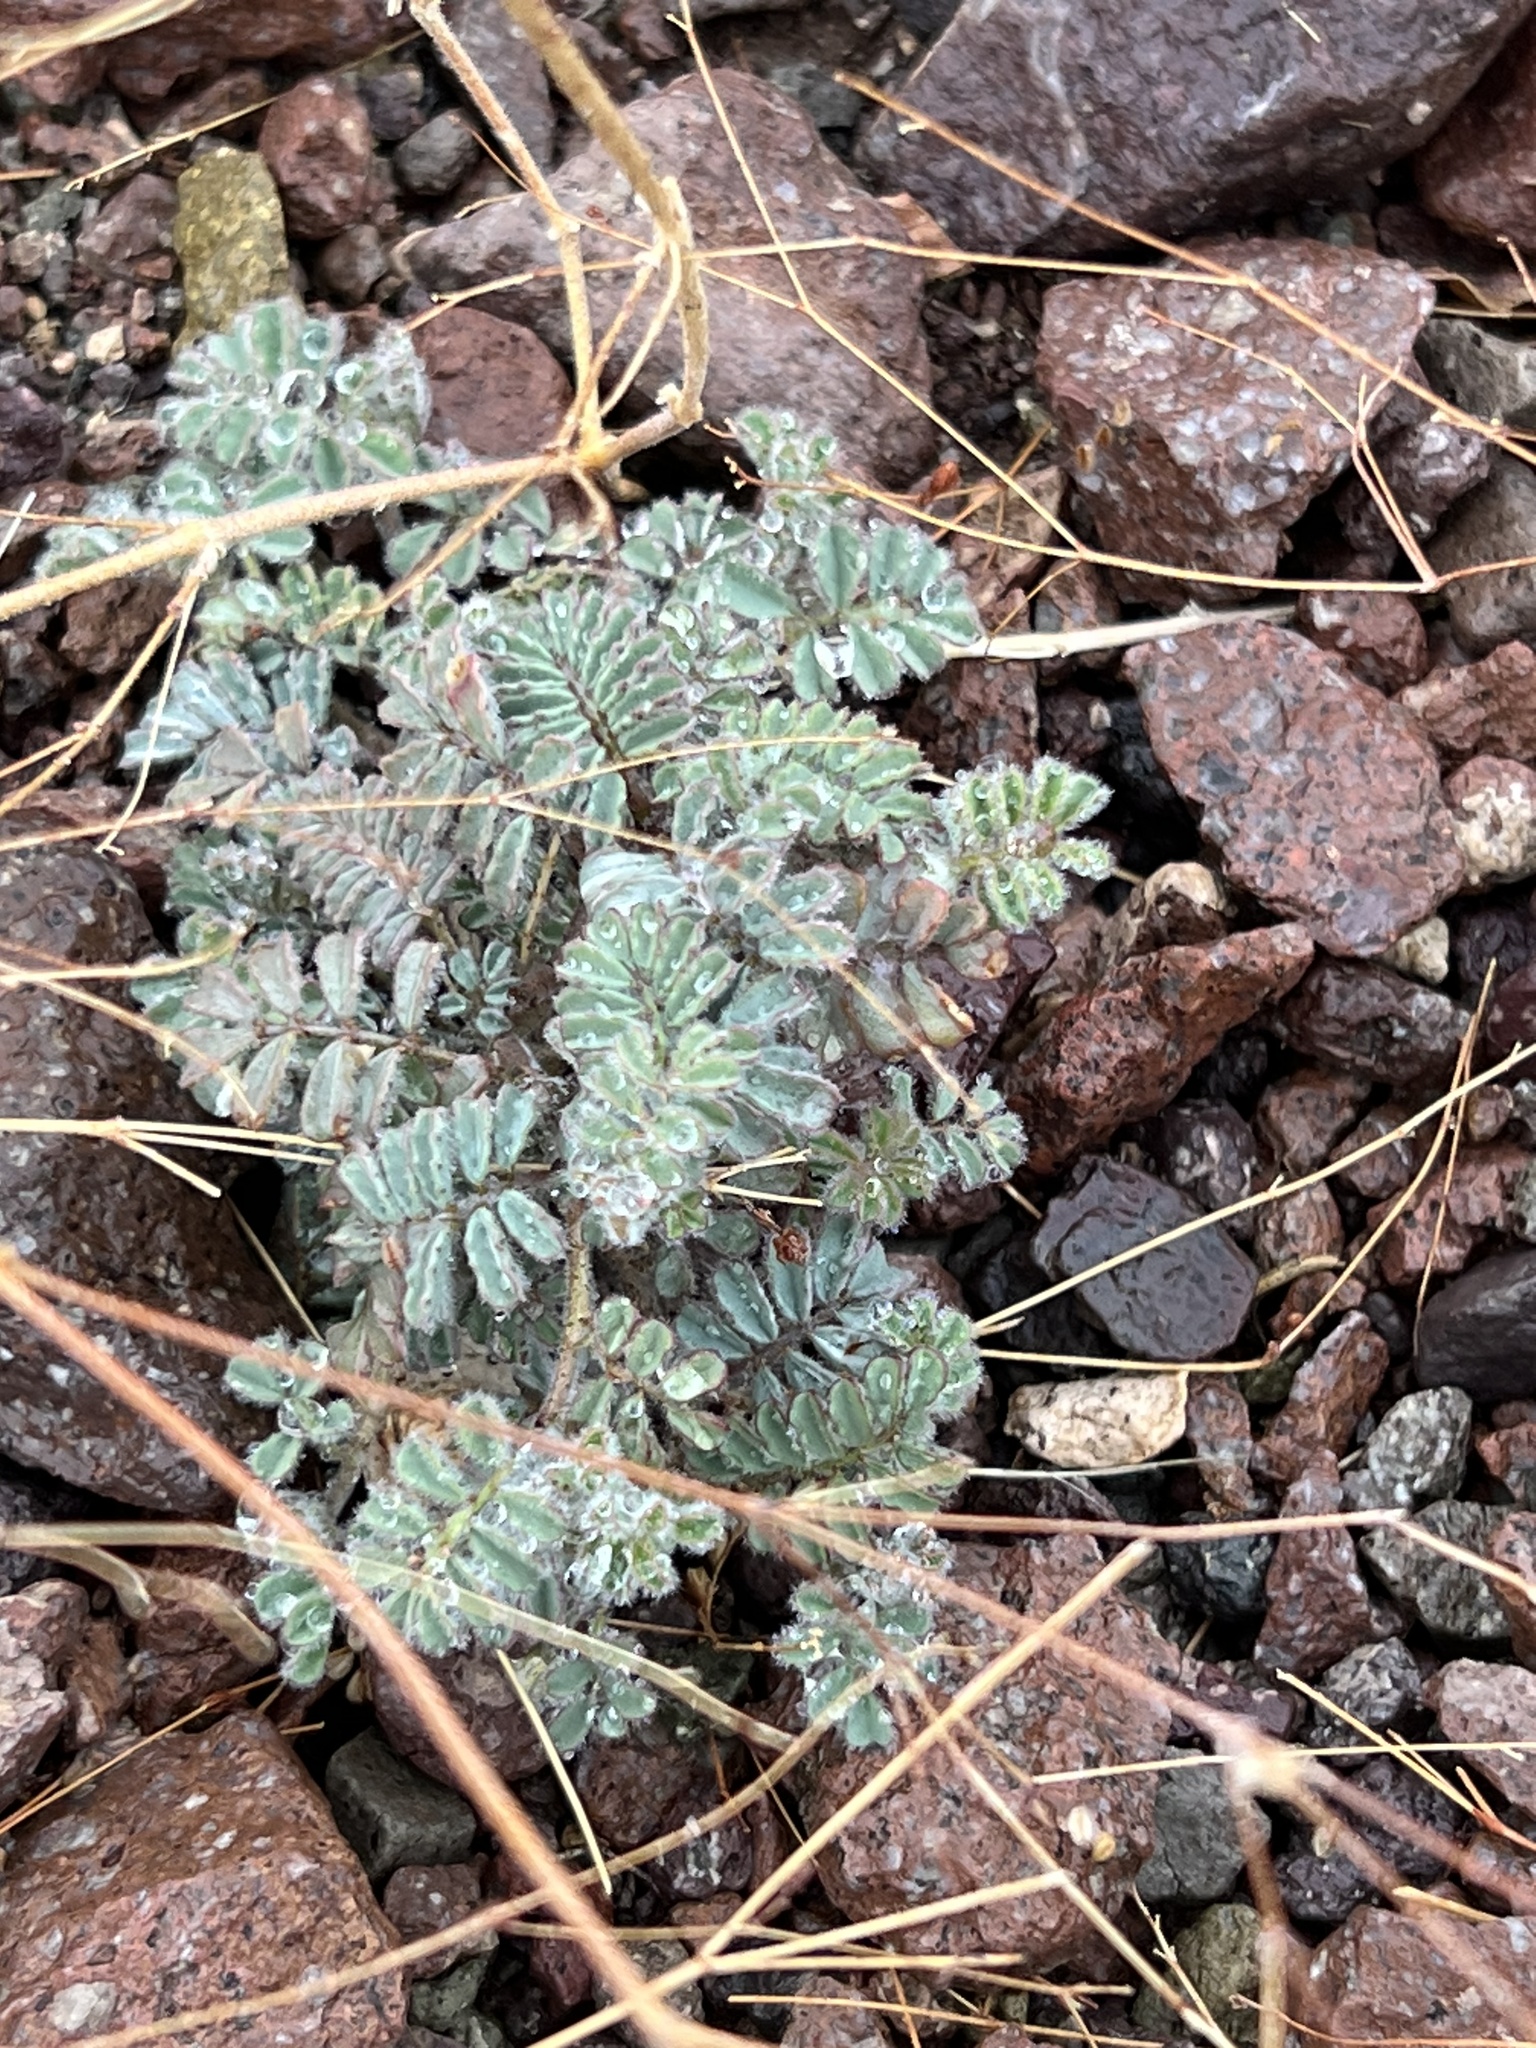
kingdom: Plantae
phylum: Tracheophyta
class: Magnoliopsida
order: Fabales
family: Fabaceae
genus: Dalea
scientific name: Dalea mollissima
